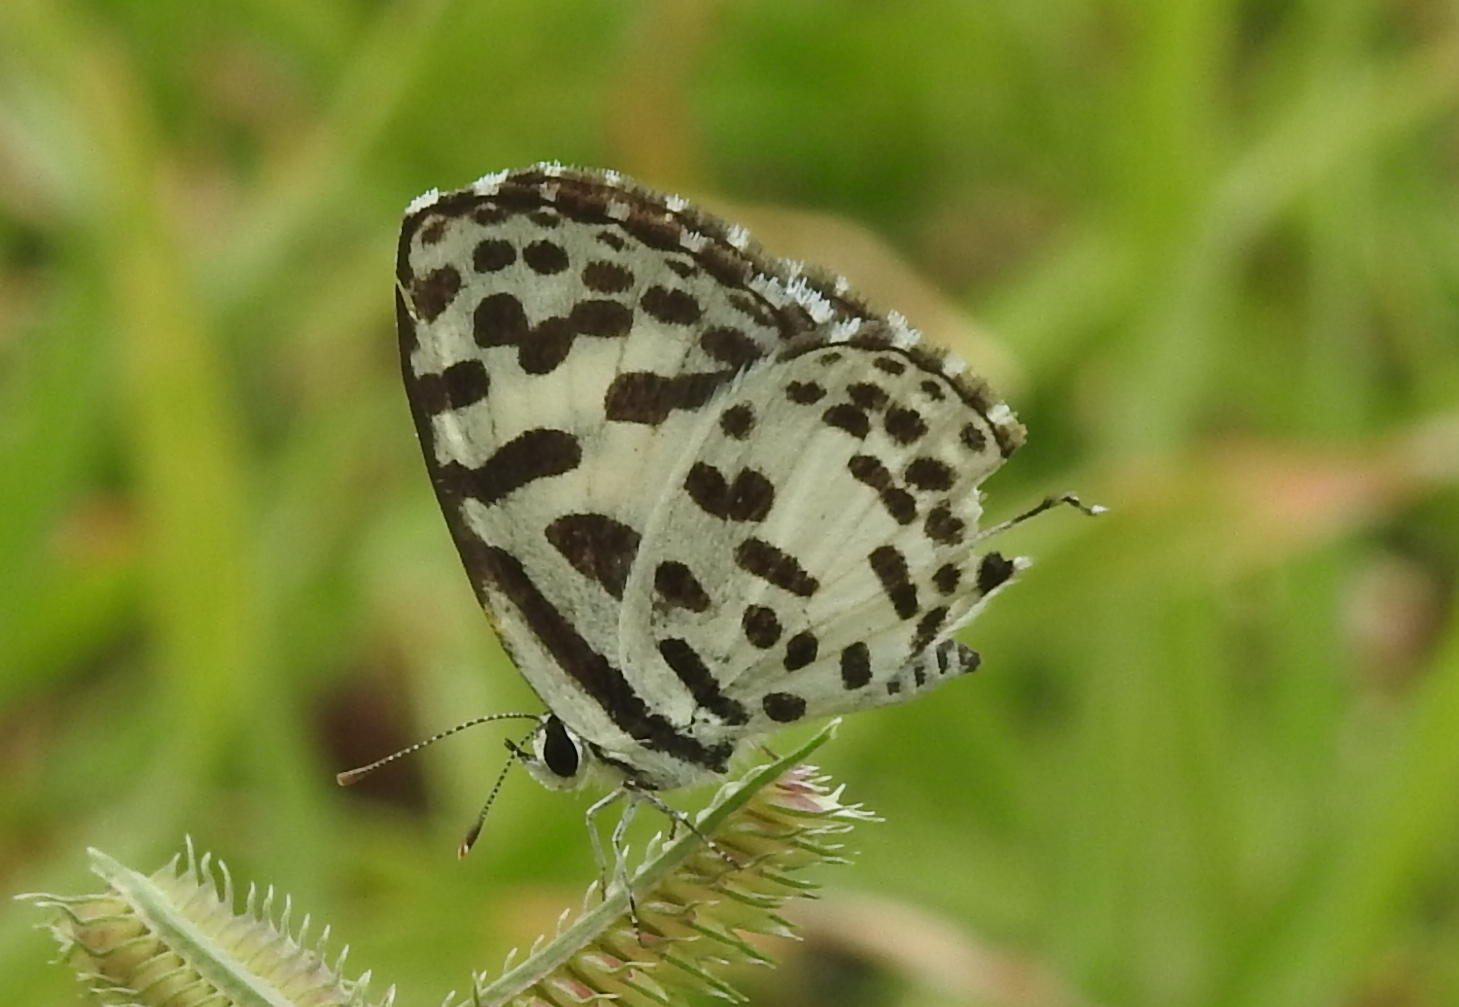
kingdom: Animalia
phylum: Arthropoda
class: Insecta
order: Lepidoptera
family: Lycaenidae
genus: Castalius
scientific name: Castalius rosimon
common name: Common pierrot
